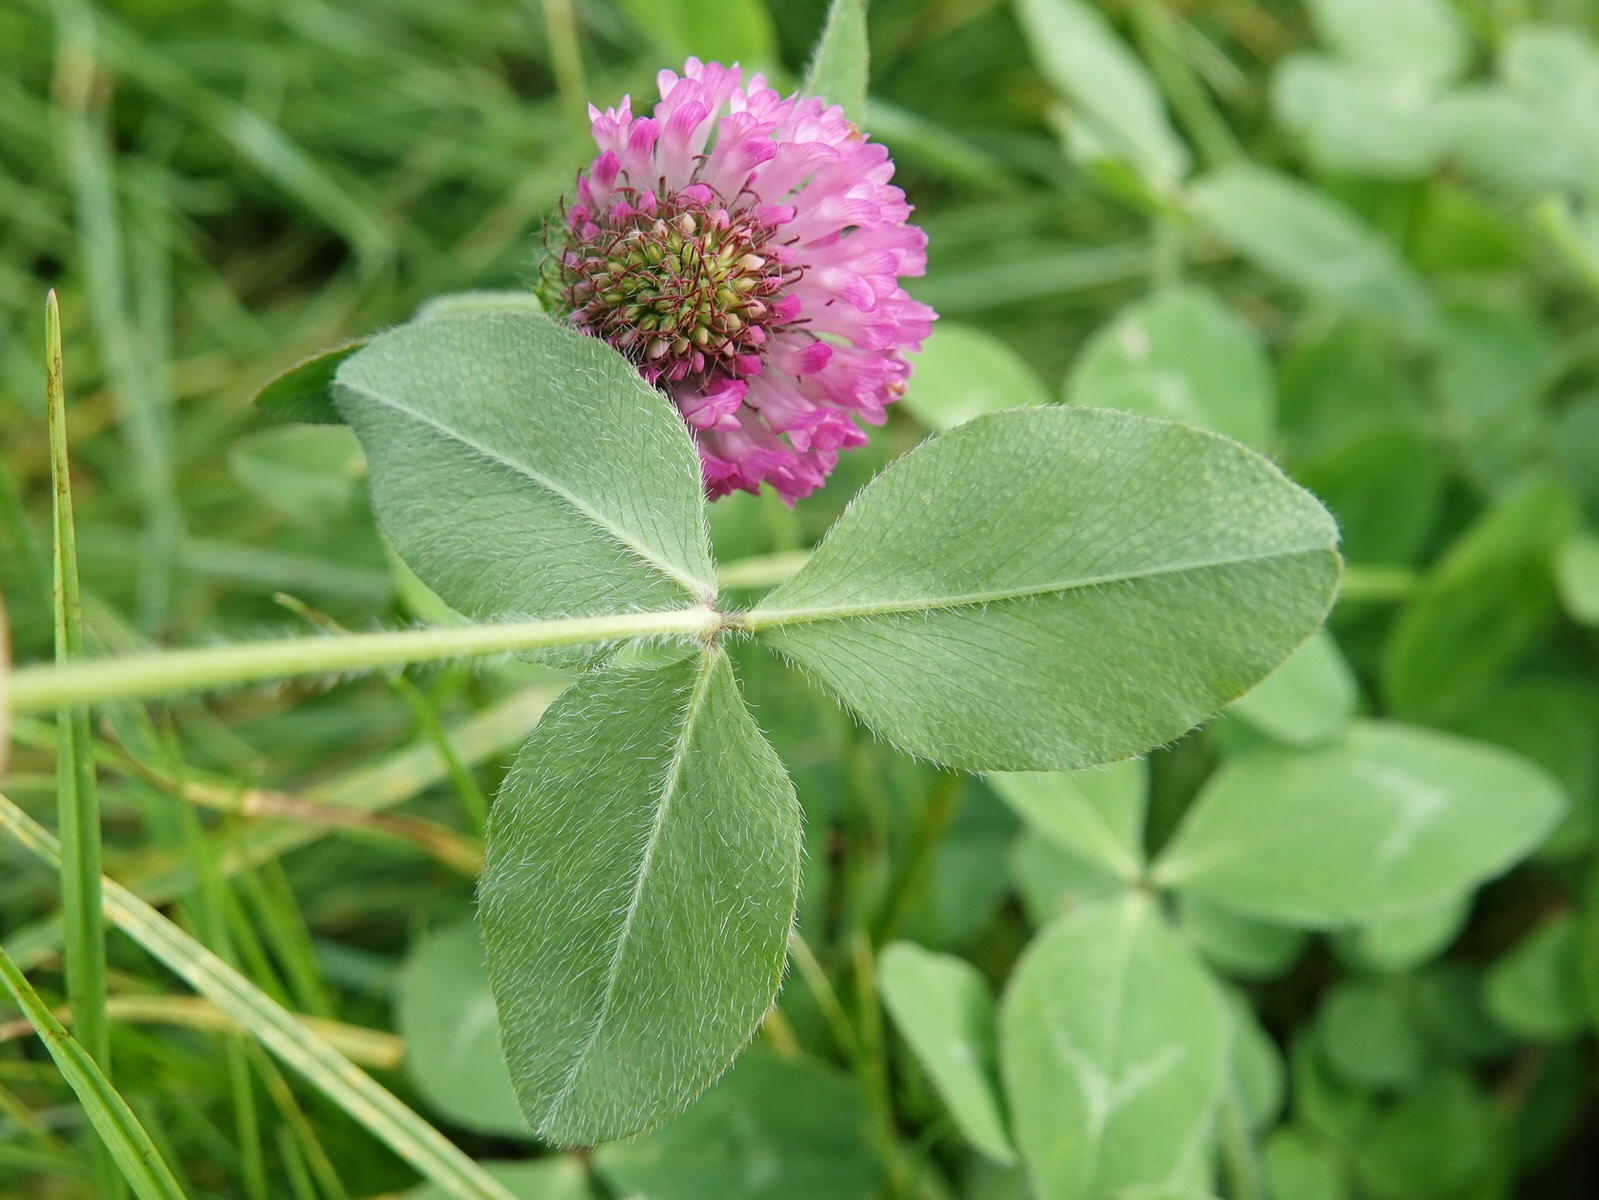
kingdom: Plantae
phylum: Tracheophyta
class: Magnoliopsida
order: Fabales
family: Fabaceae
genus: Trifolium
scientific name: Trifolium pratense
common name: Red clover
